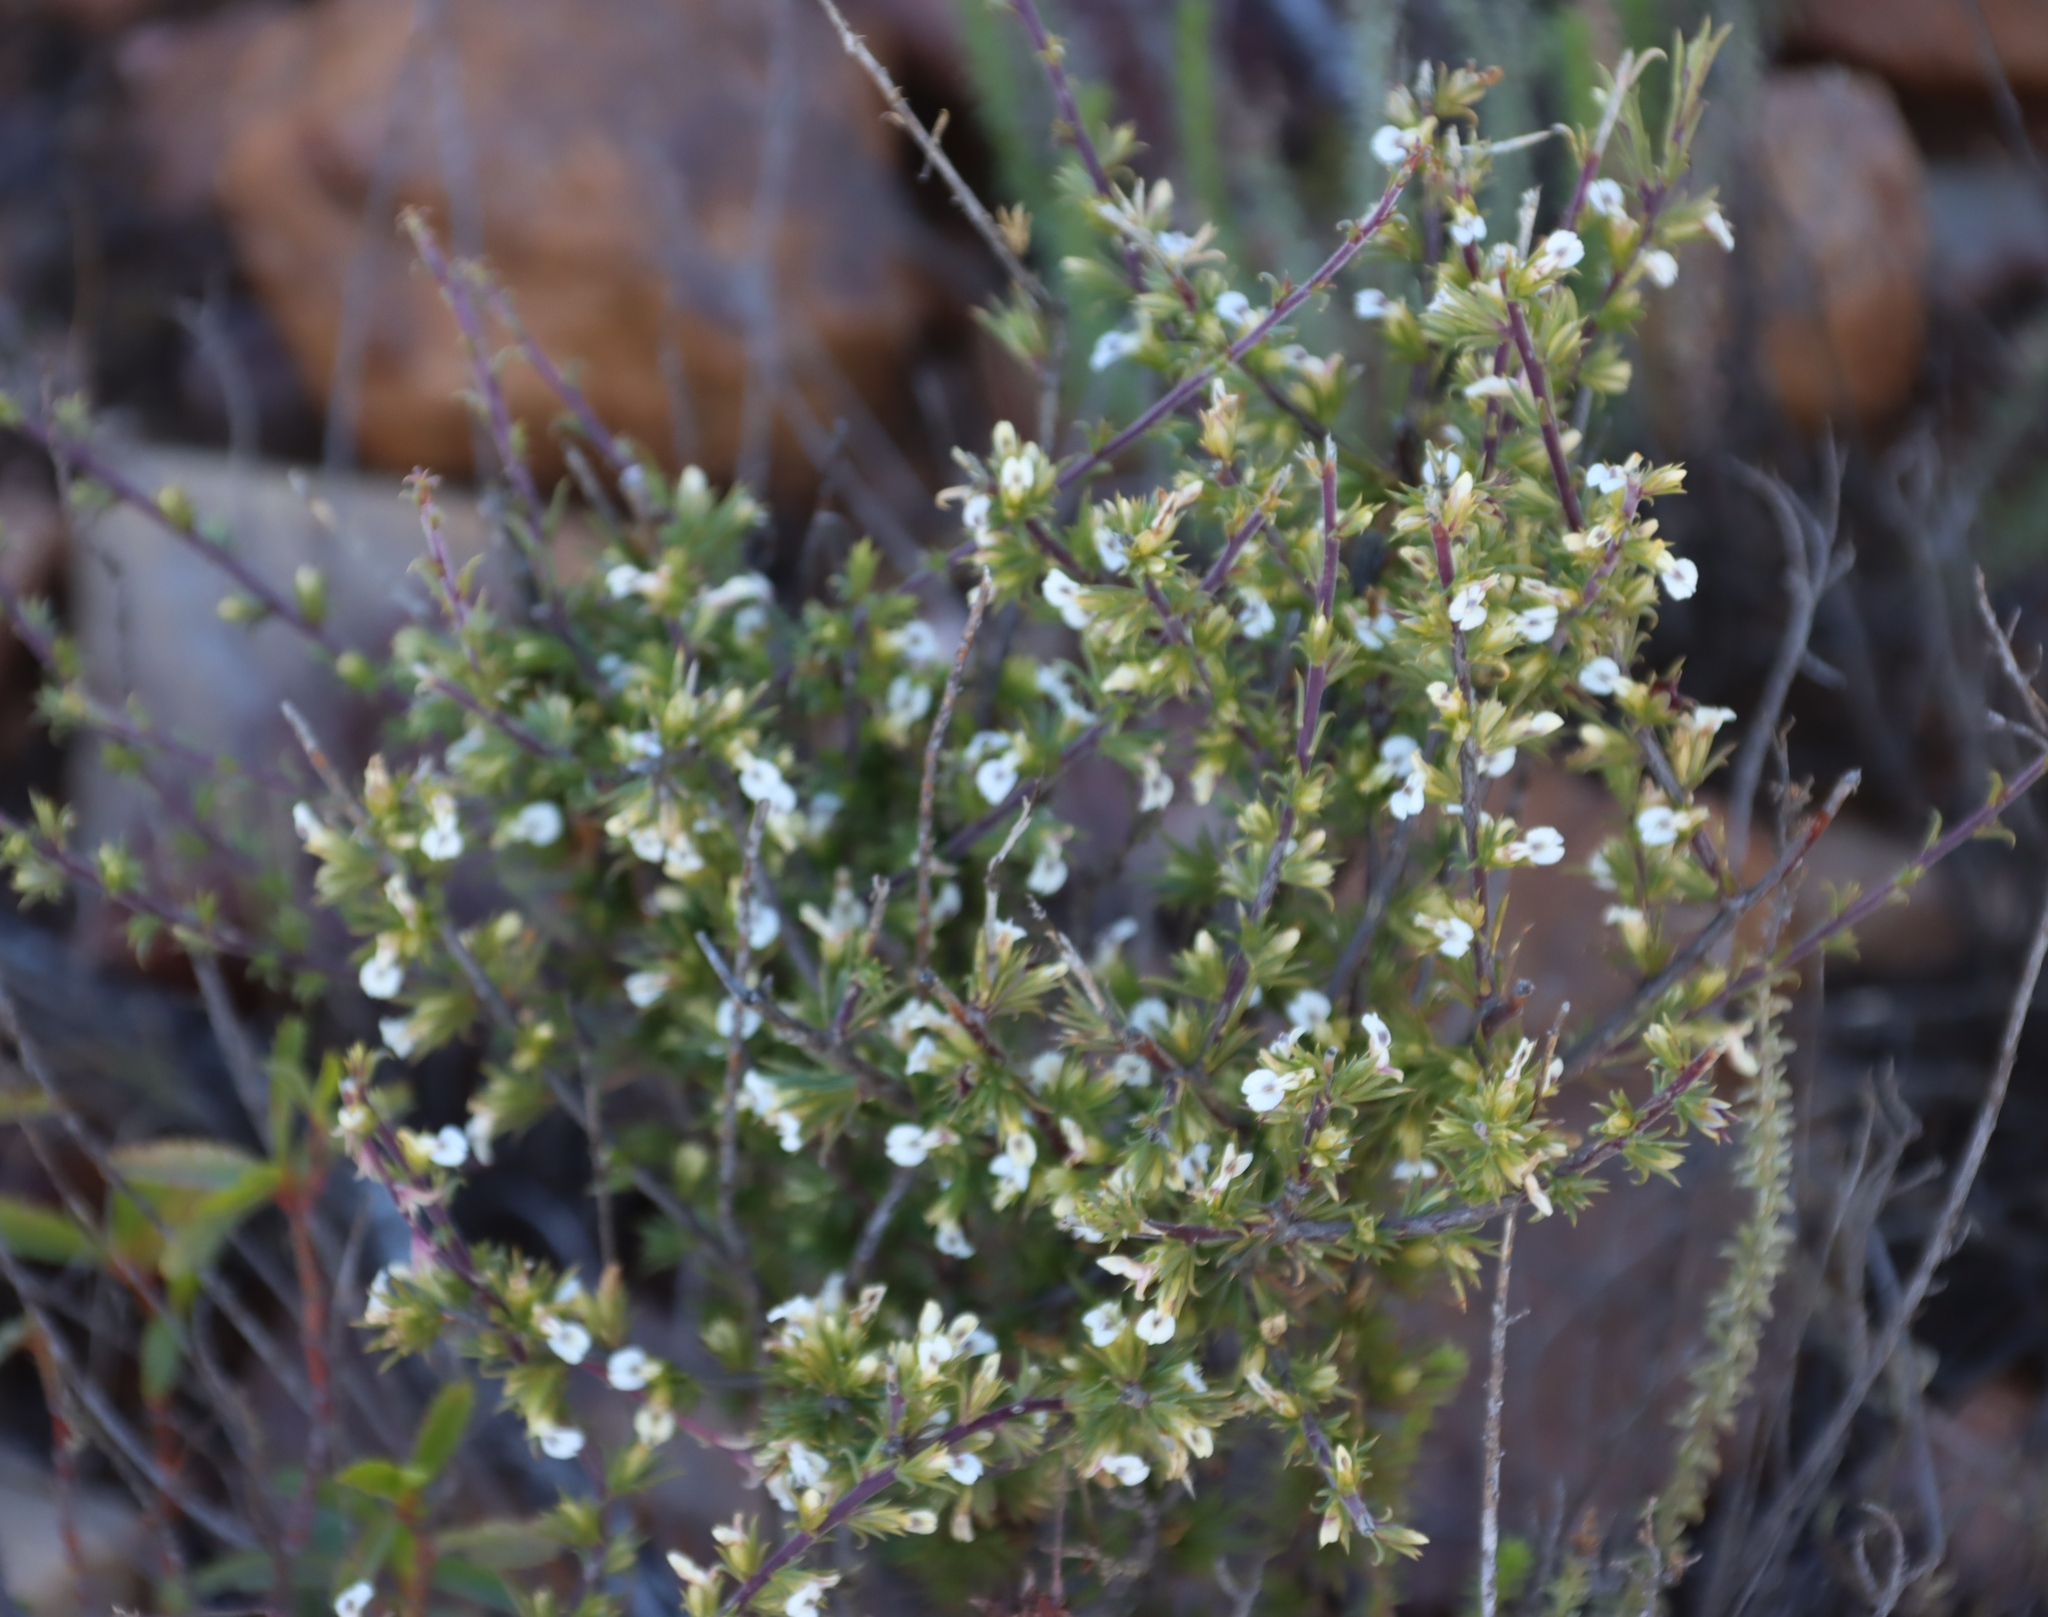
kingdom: Plantae
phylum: Tracheophyta
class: Magnoliopsida
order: Fabales
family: Polygalaceae
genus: Muraltia
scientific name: Muraltia ericifolia
